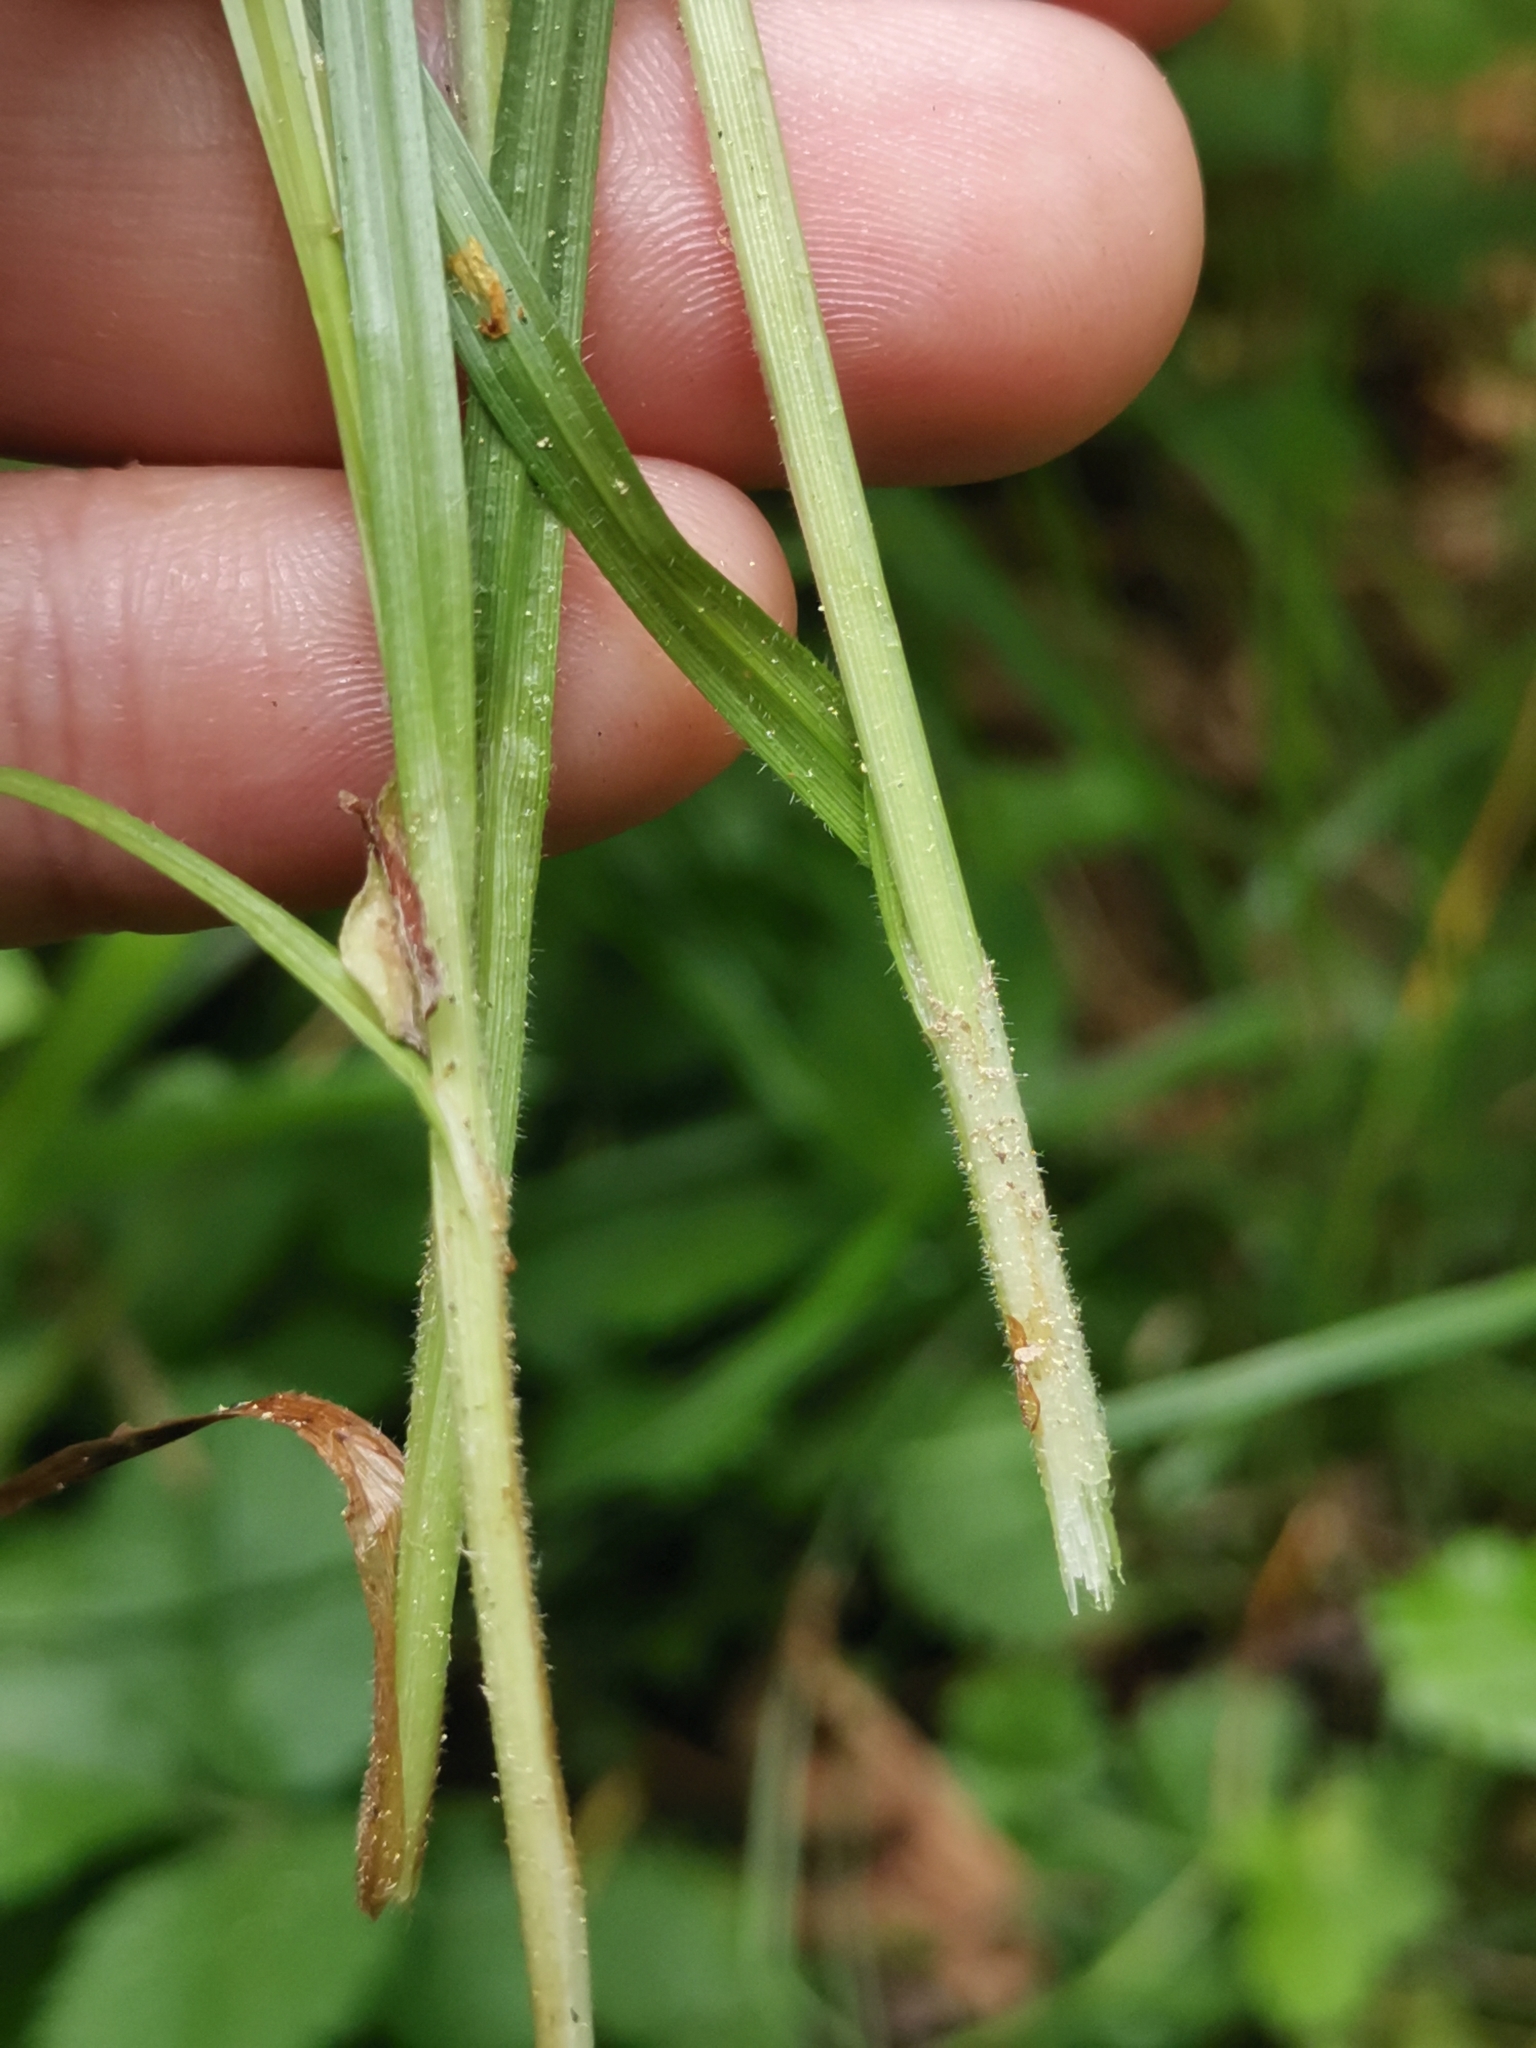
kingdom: Plantae
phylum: Tracheophyta
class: Liliopsida
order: Poales
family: Cyperaceae
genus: Carex
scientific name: Carex pallescens
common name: Pale sedge
